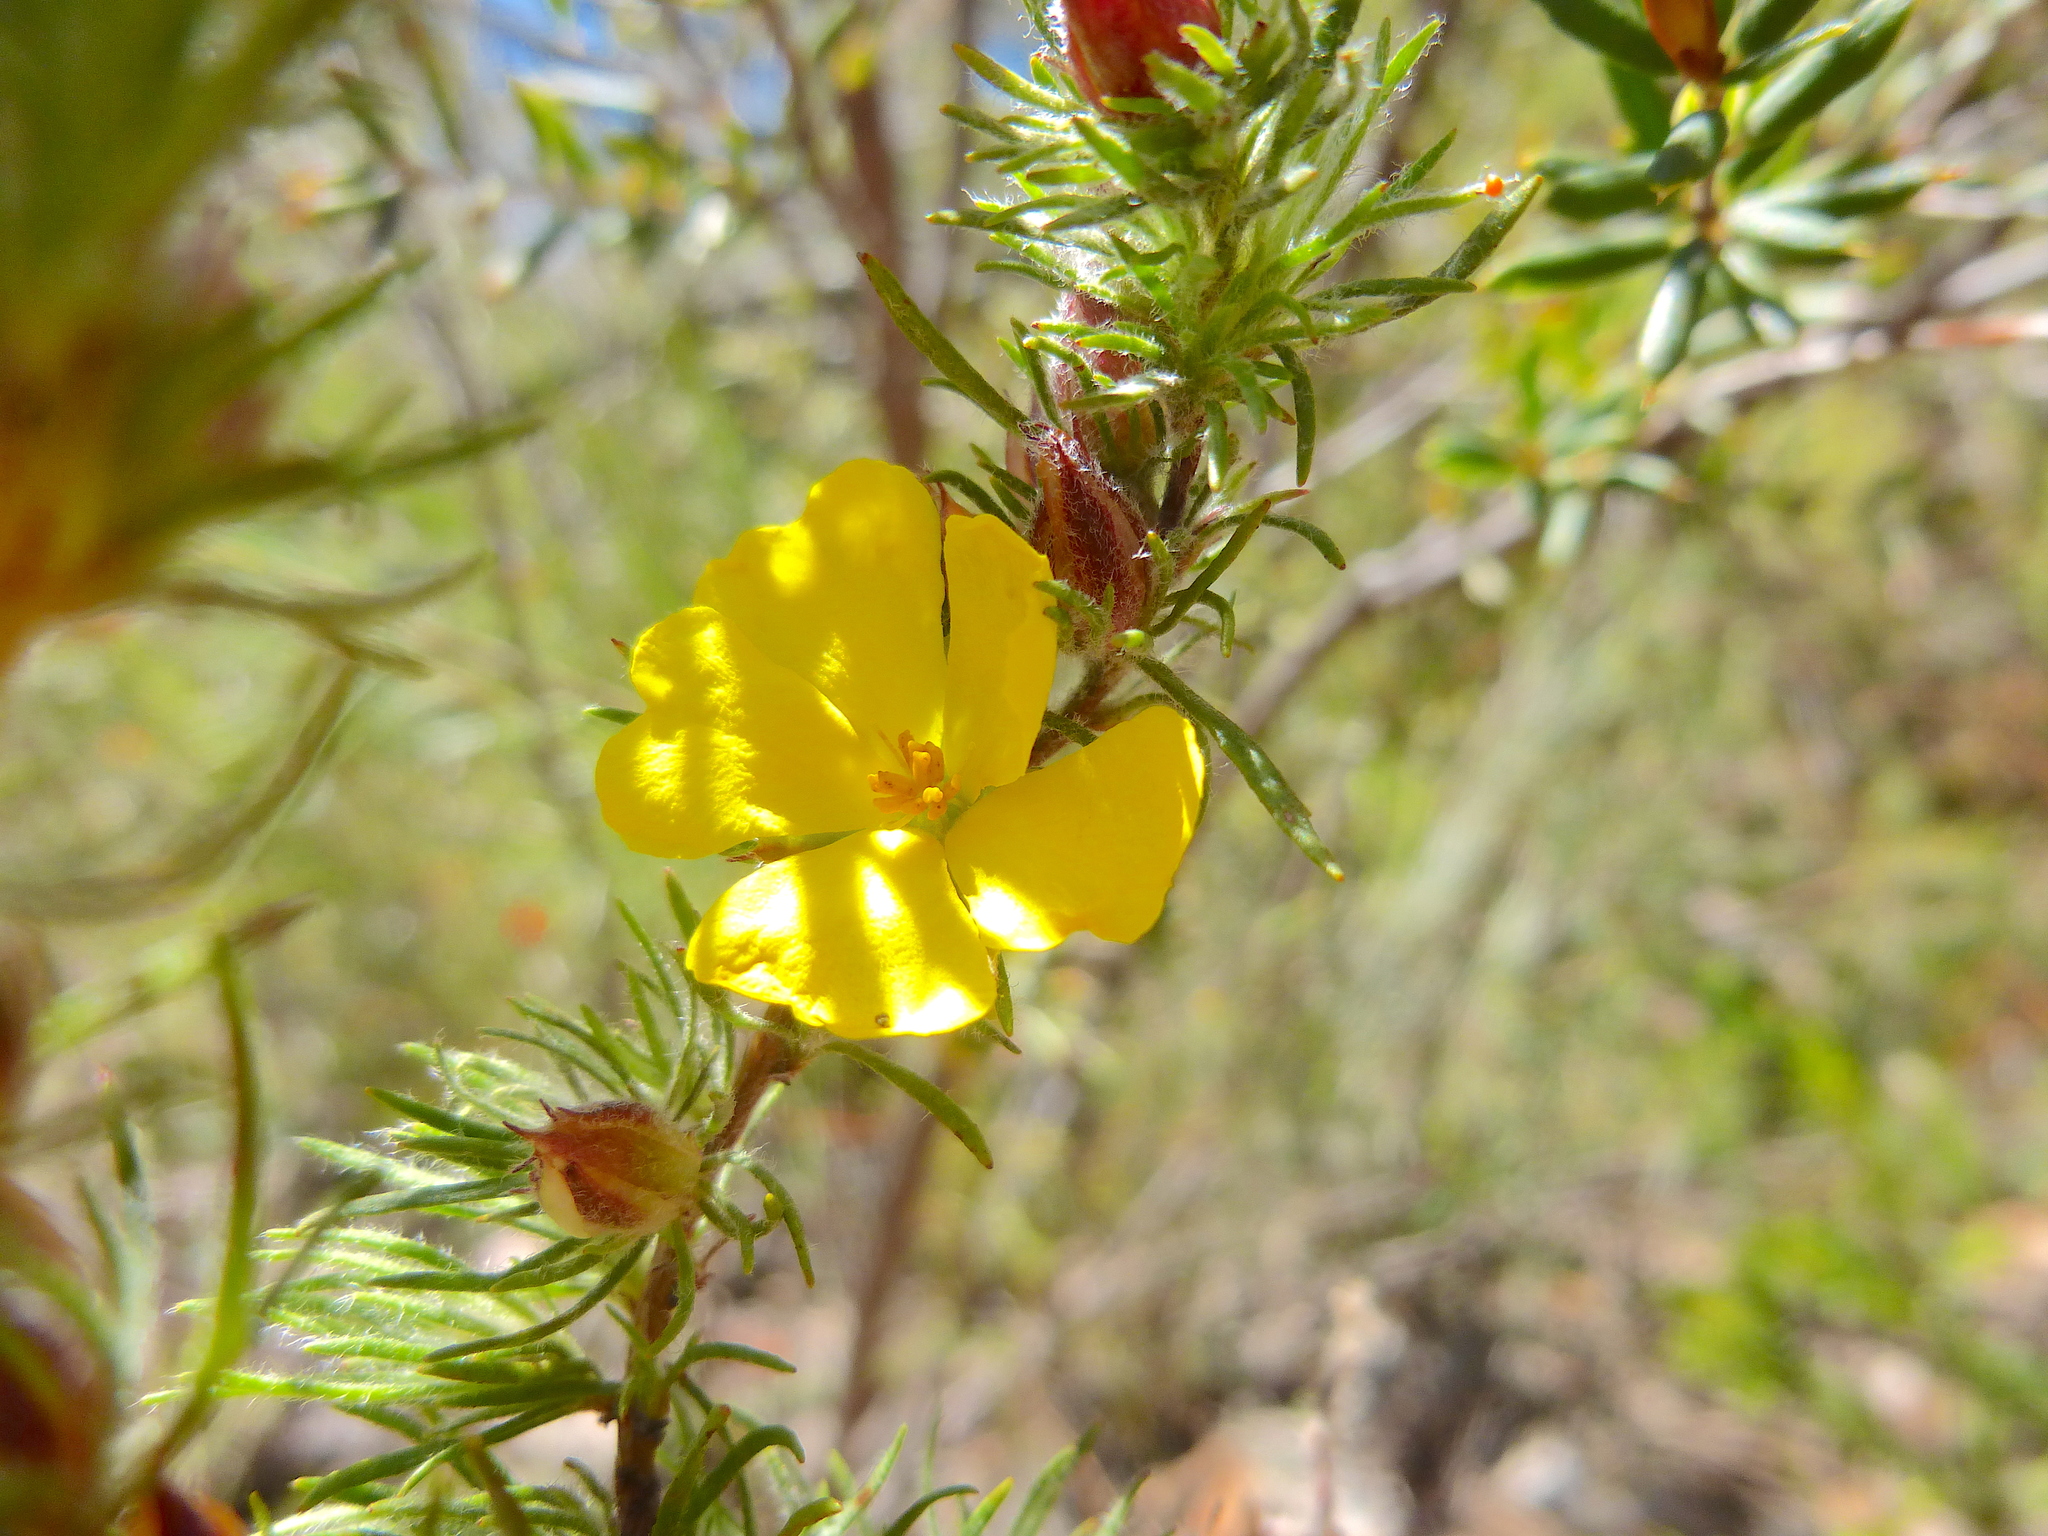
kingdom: Plantae
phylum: Tracheophyta
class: Magnoliopsida
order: Dilleniales
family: Dilleniaceae
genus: Hibbertia
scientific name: Hibbertia fasciculata
